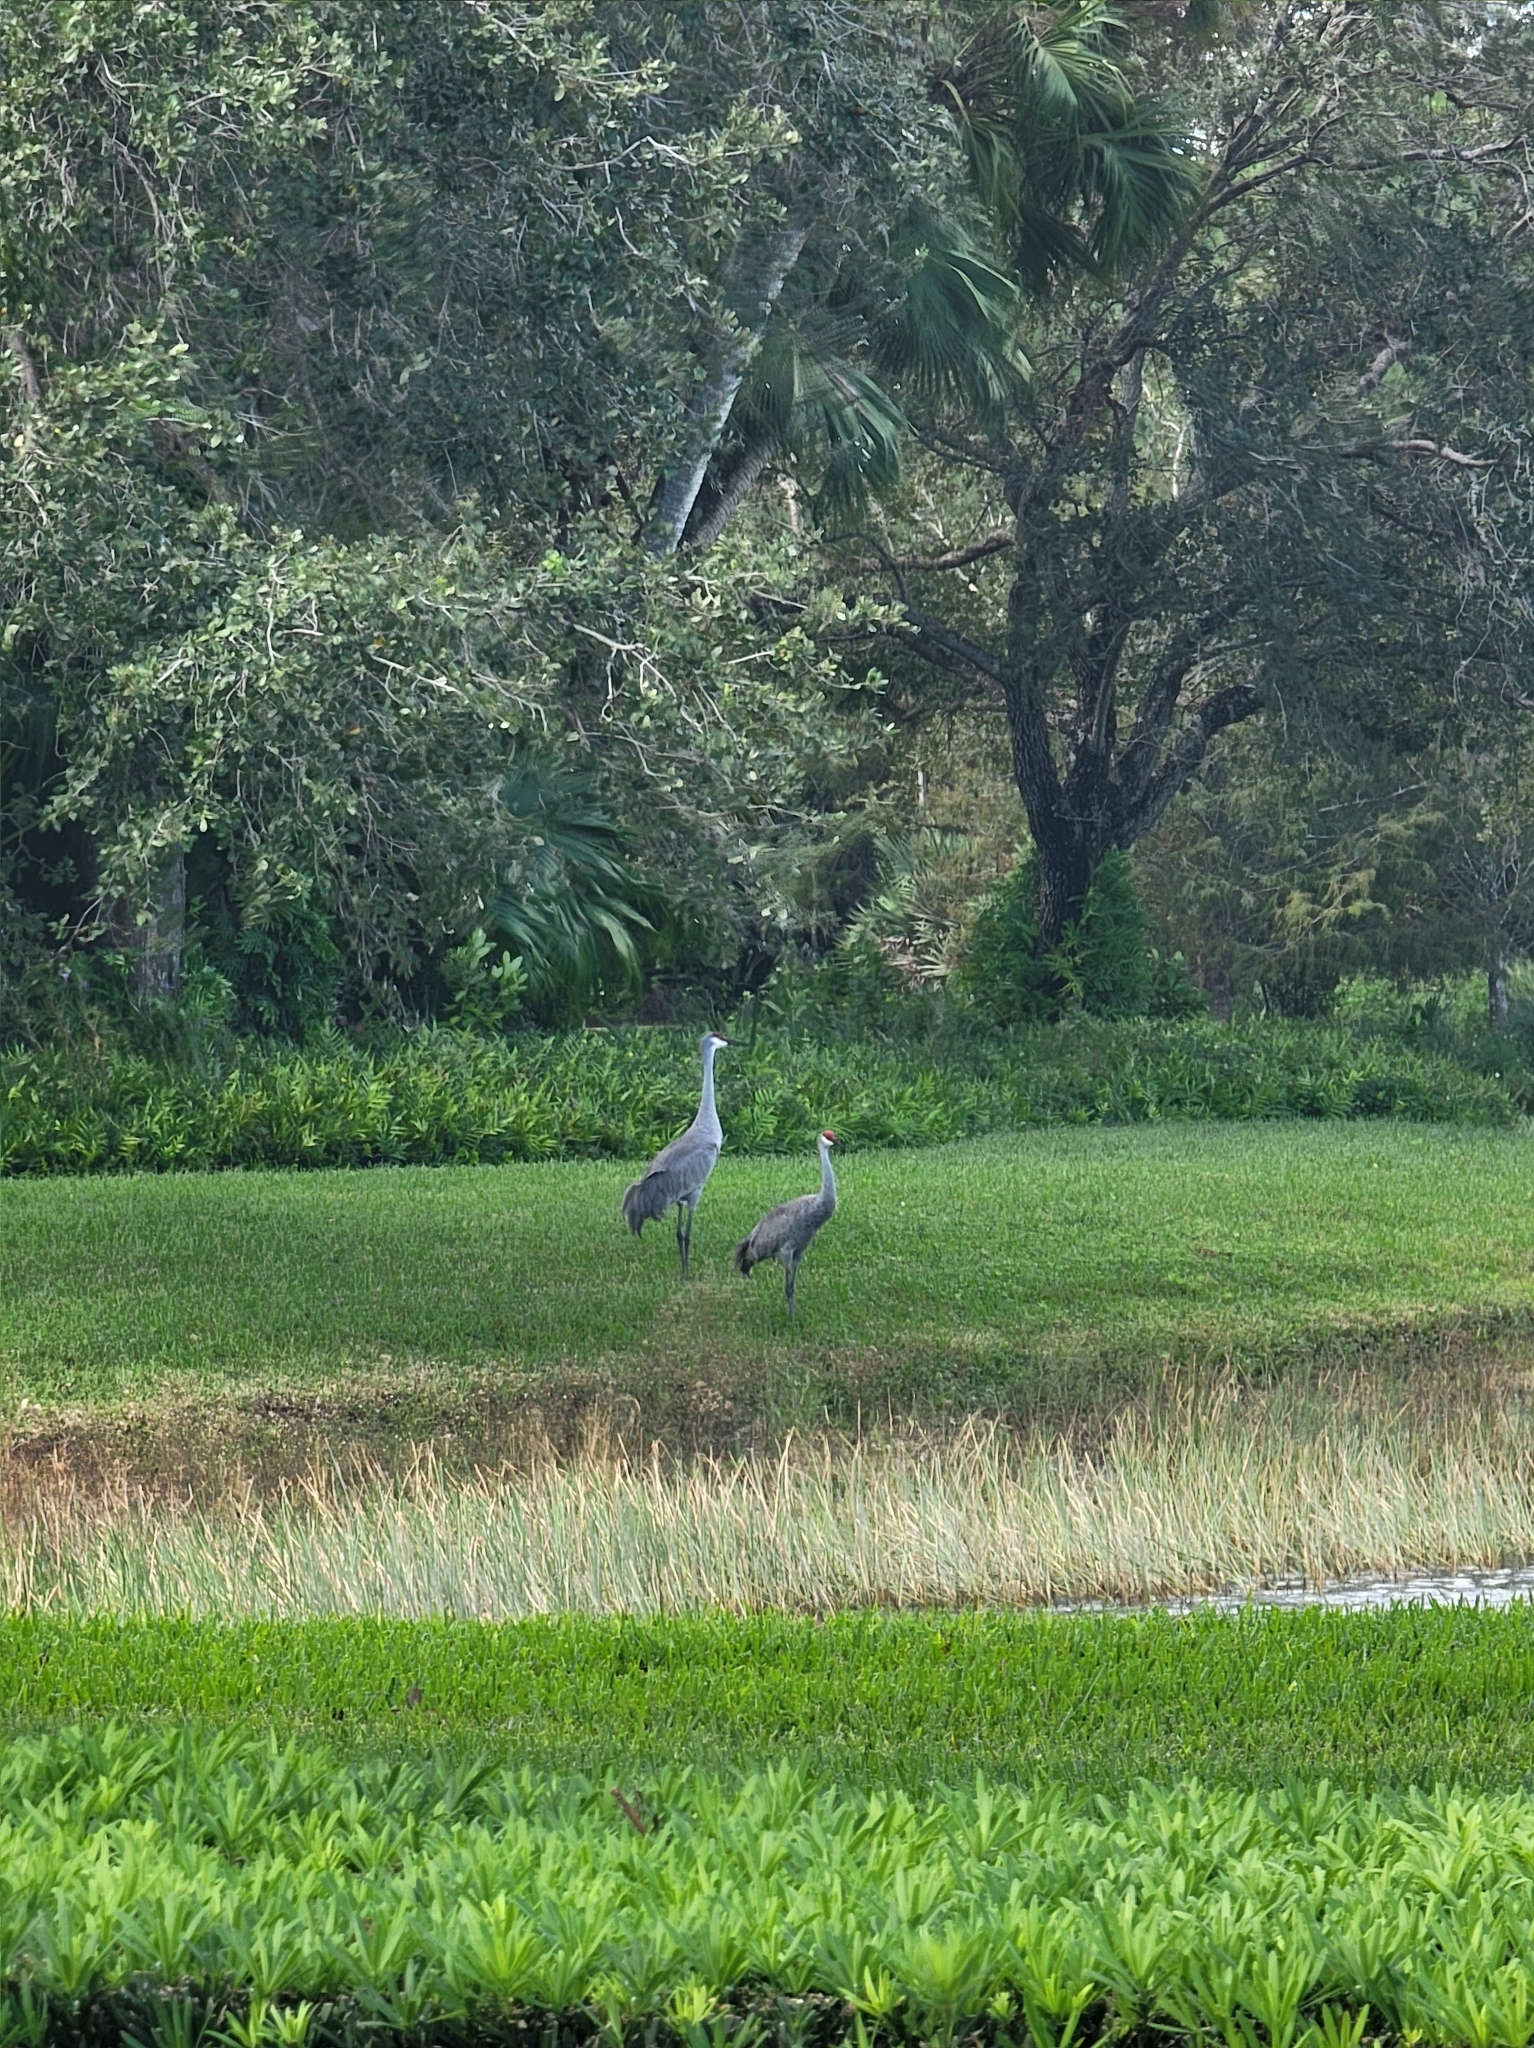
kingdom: Animalia
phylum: Chordata
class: Aves
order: Gruiformes
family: Gruidae
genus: Grus
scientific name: Grus canadensis
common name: Sandhill crane
